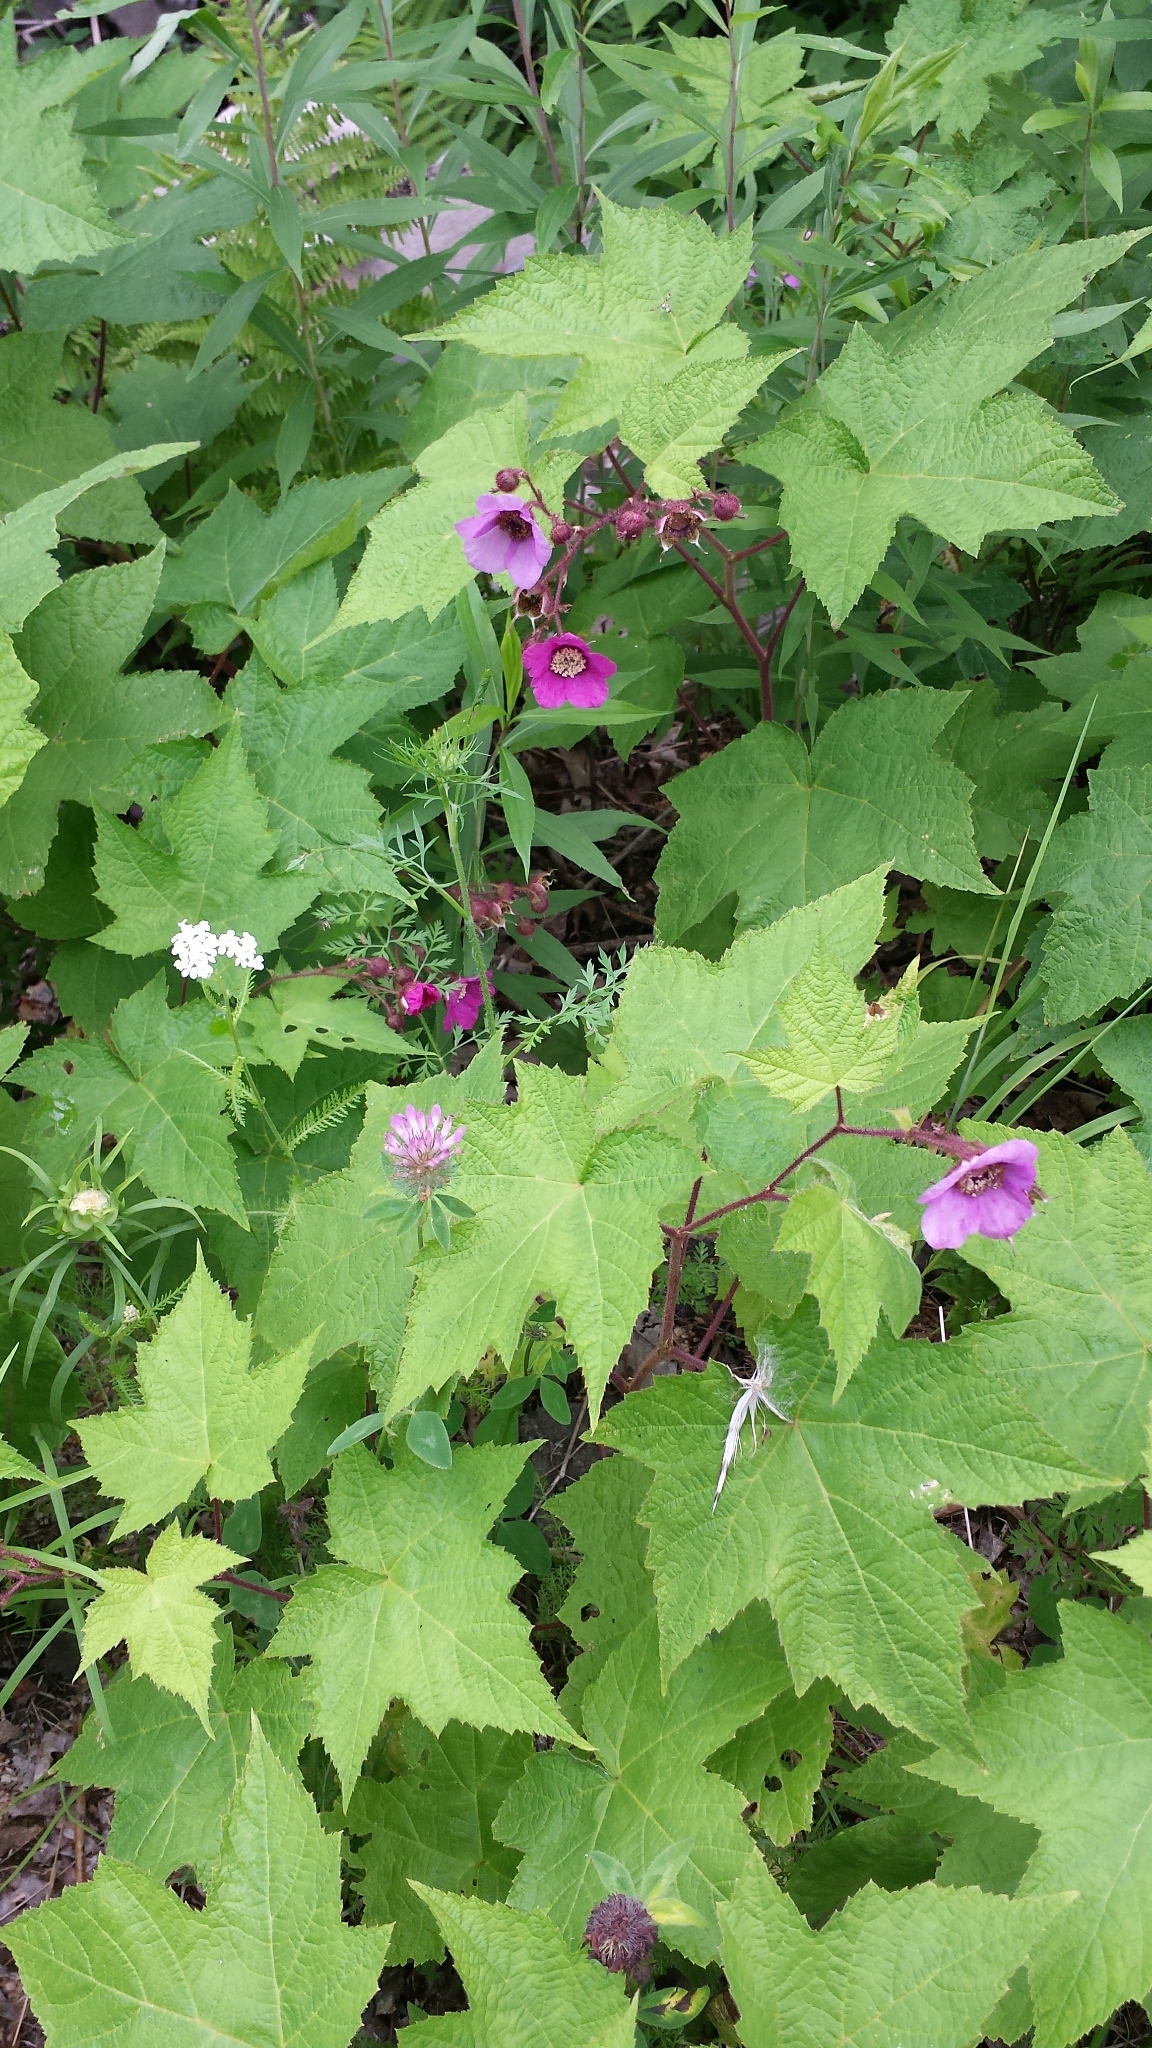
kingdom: Plantae
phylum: Tracheophyta
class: Magnoliopsida
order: Rosales
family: Rosaceae
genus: Rubus
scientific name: Rubus odoratus
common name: Purple-flowered raspberry
